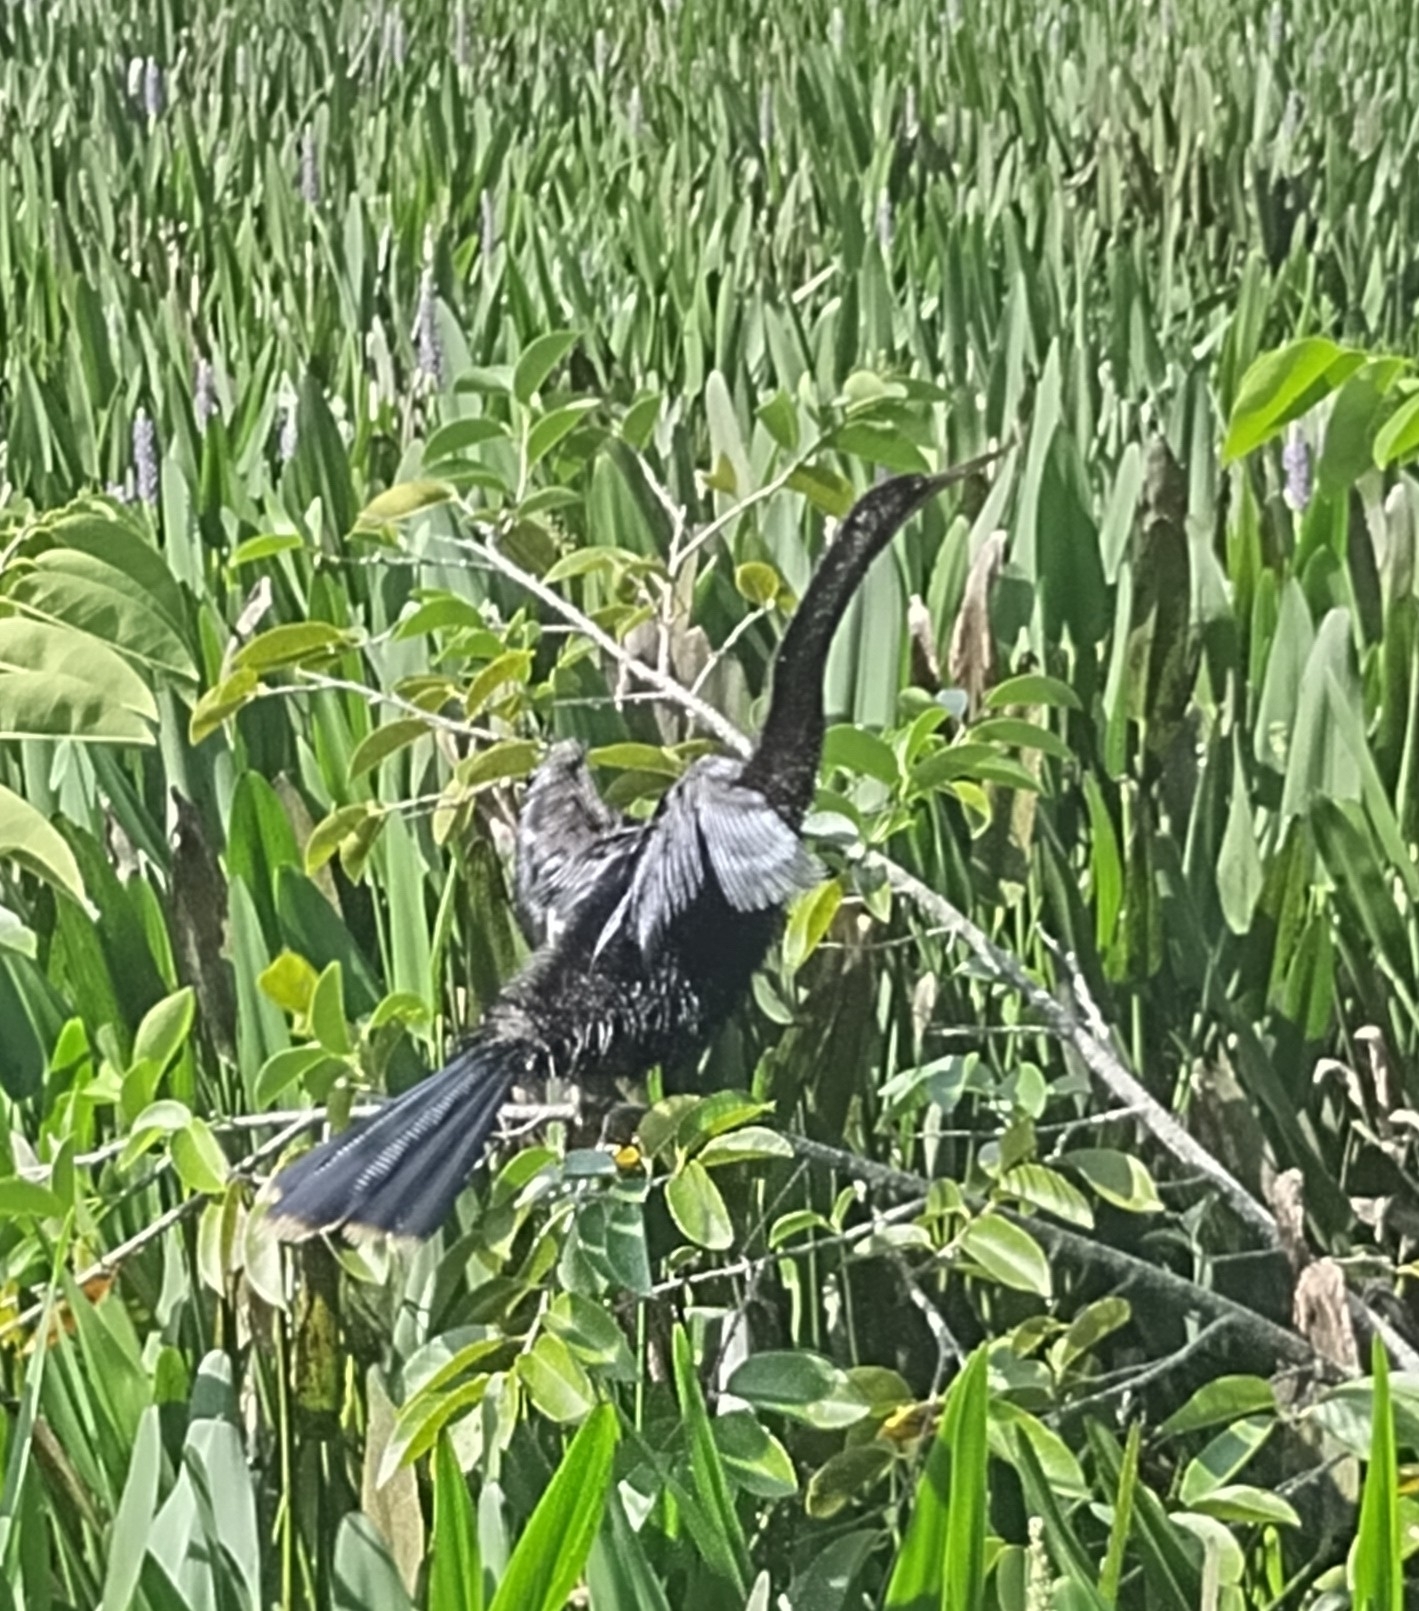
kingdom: Animalia
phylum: Chordata
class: Aves
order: Suliformes
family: Anhingidae
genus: Anhinga
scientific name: Anhinga anhinga
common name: Anhinga
